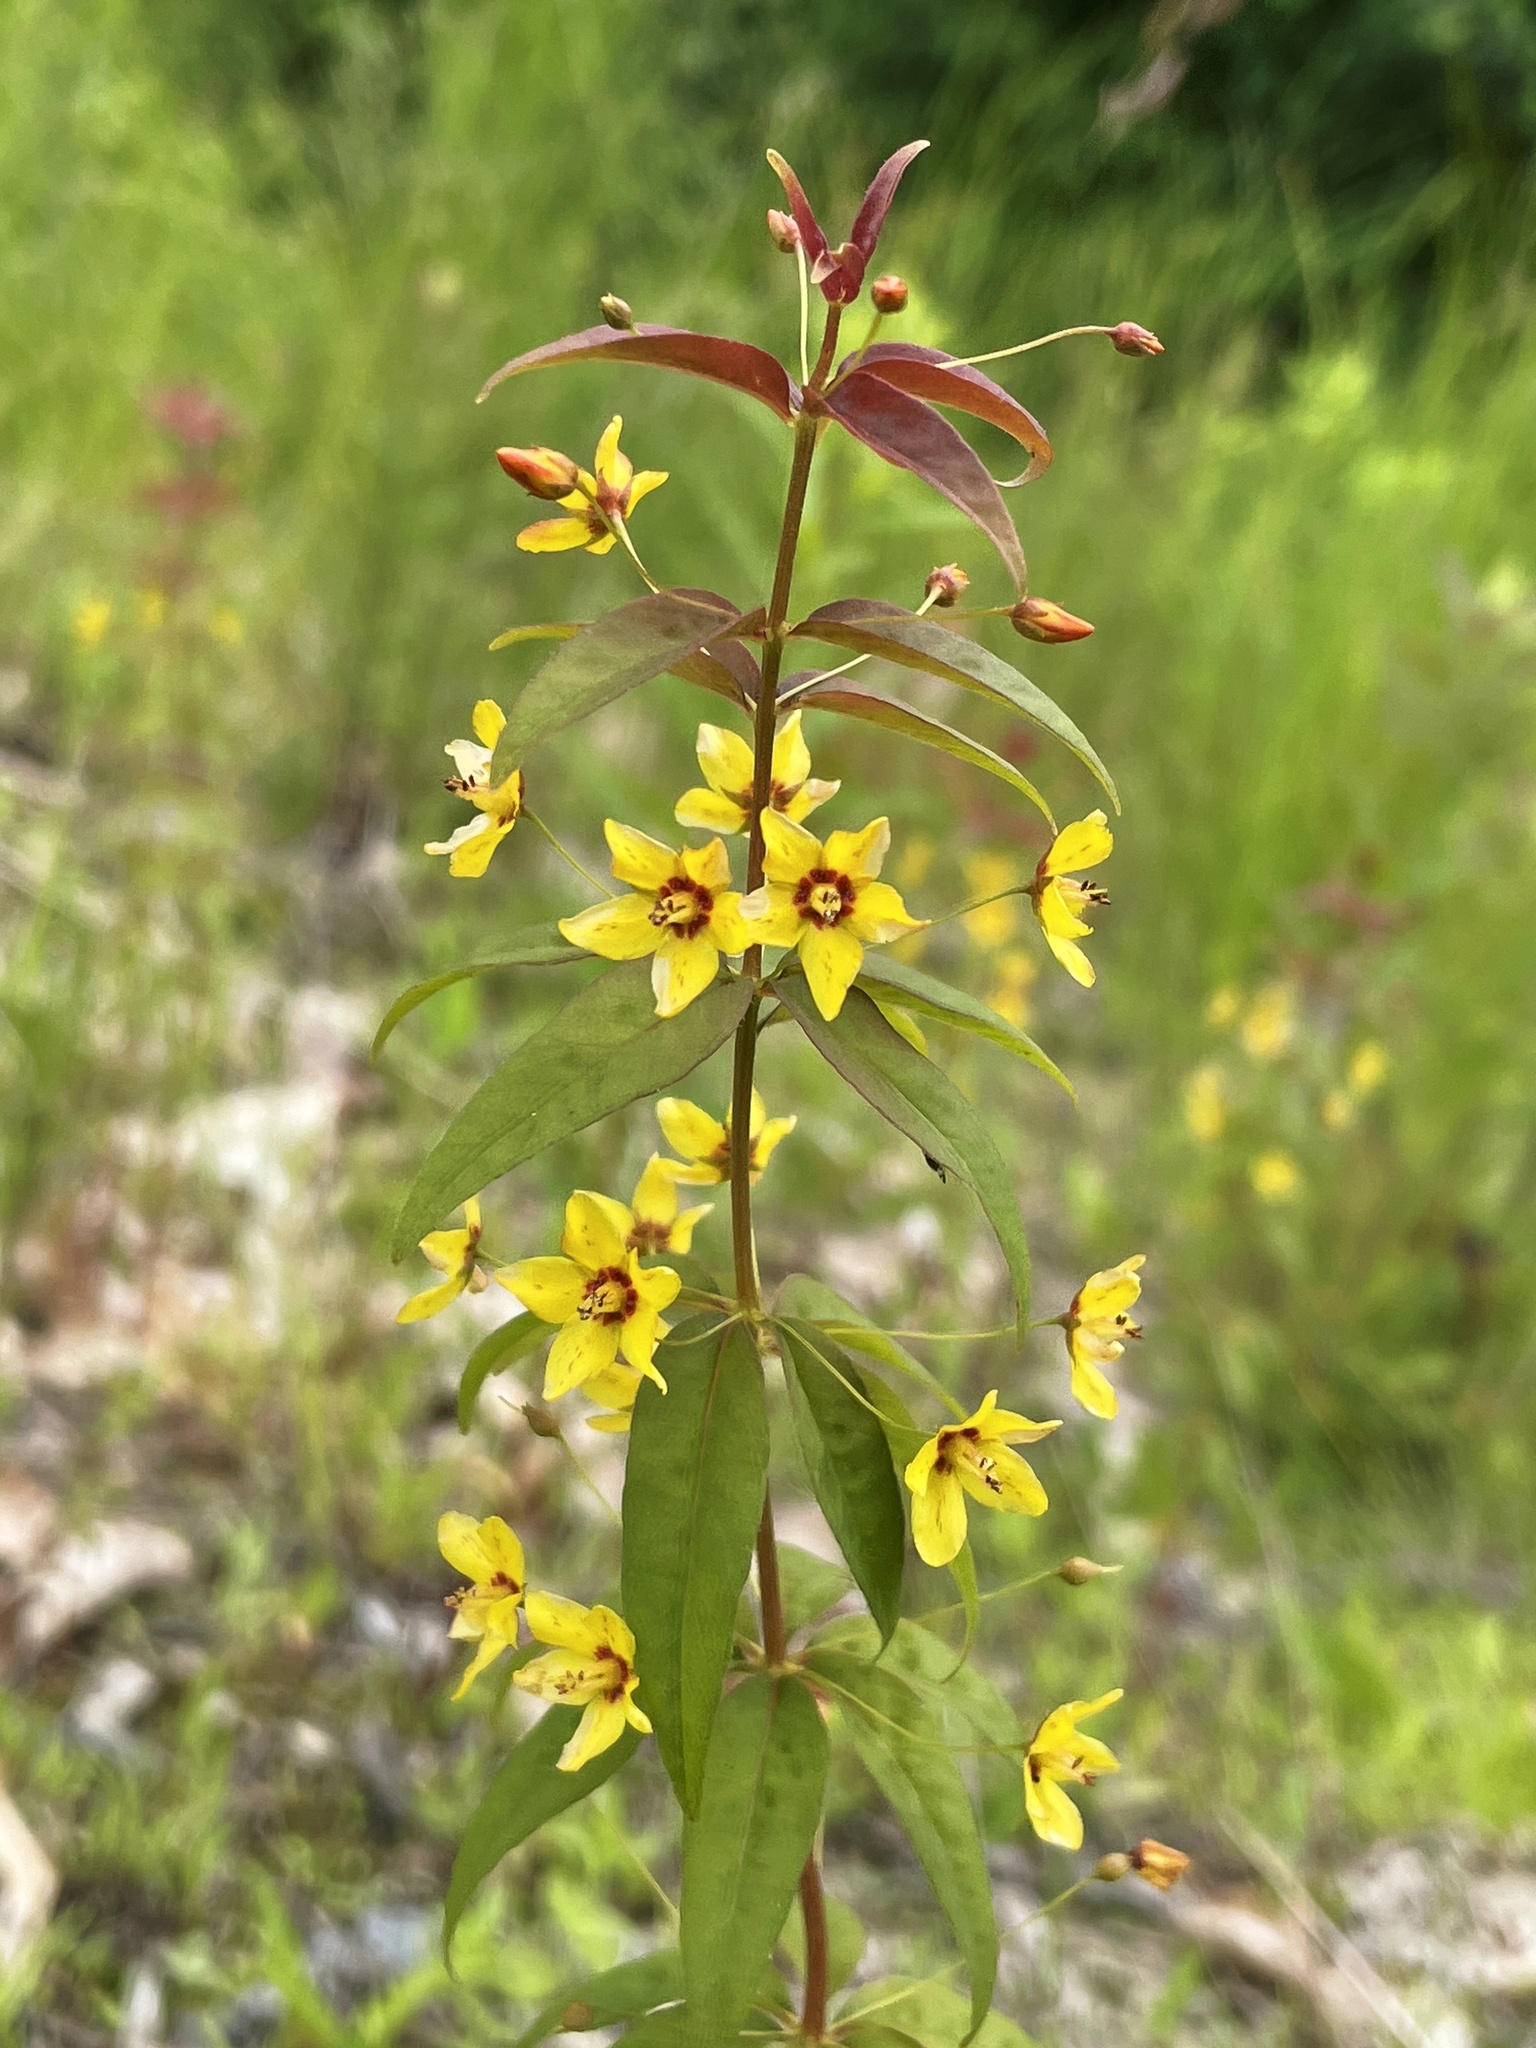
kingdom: Plantae
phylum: Tracheophyta
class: Magnoliopsida
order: Ericales
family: Primulaceae
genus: Lysimachia
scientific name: Lysimachia quadrifolia
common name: Whorled loosestrife
